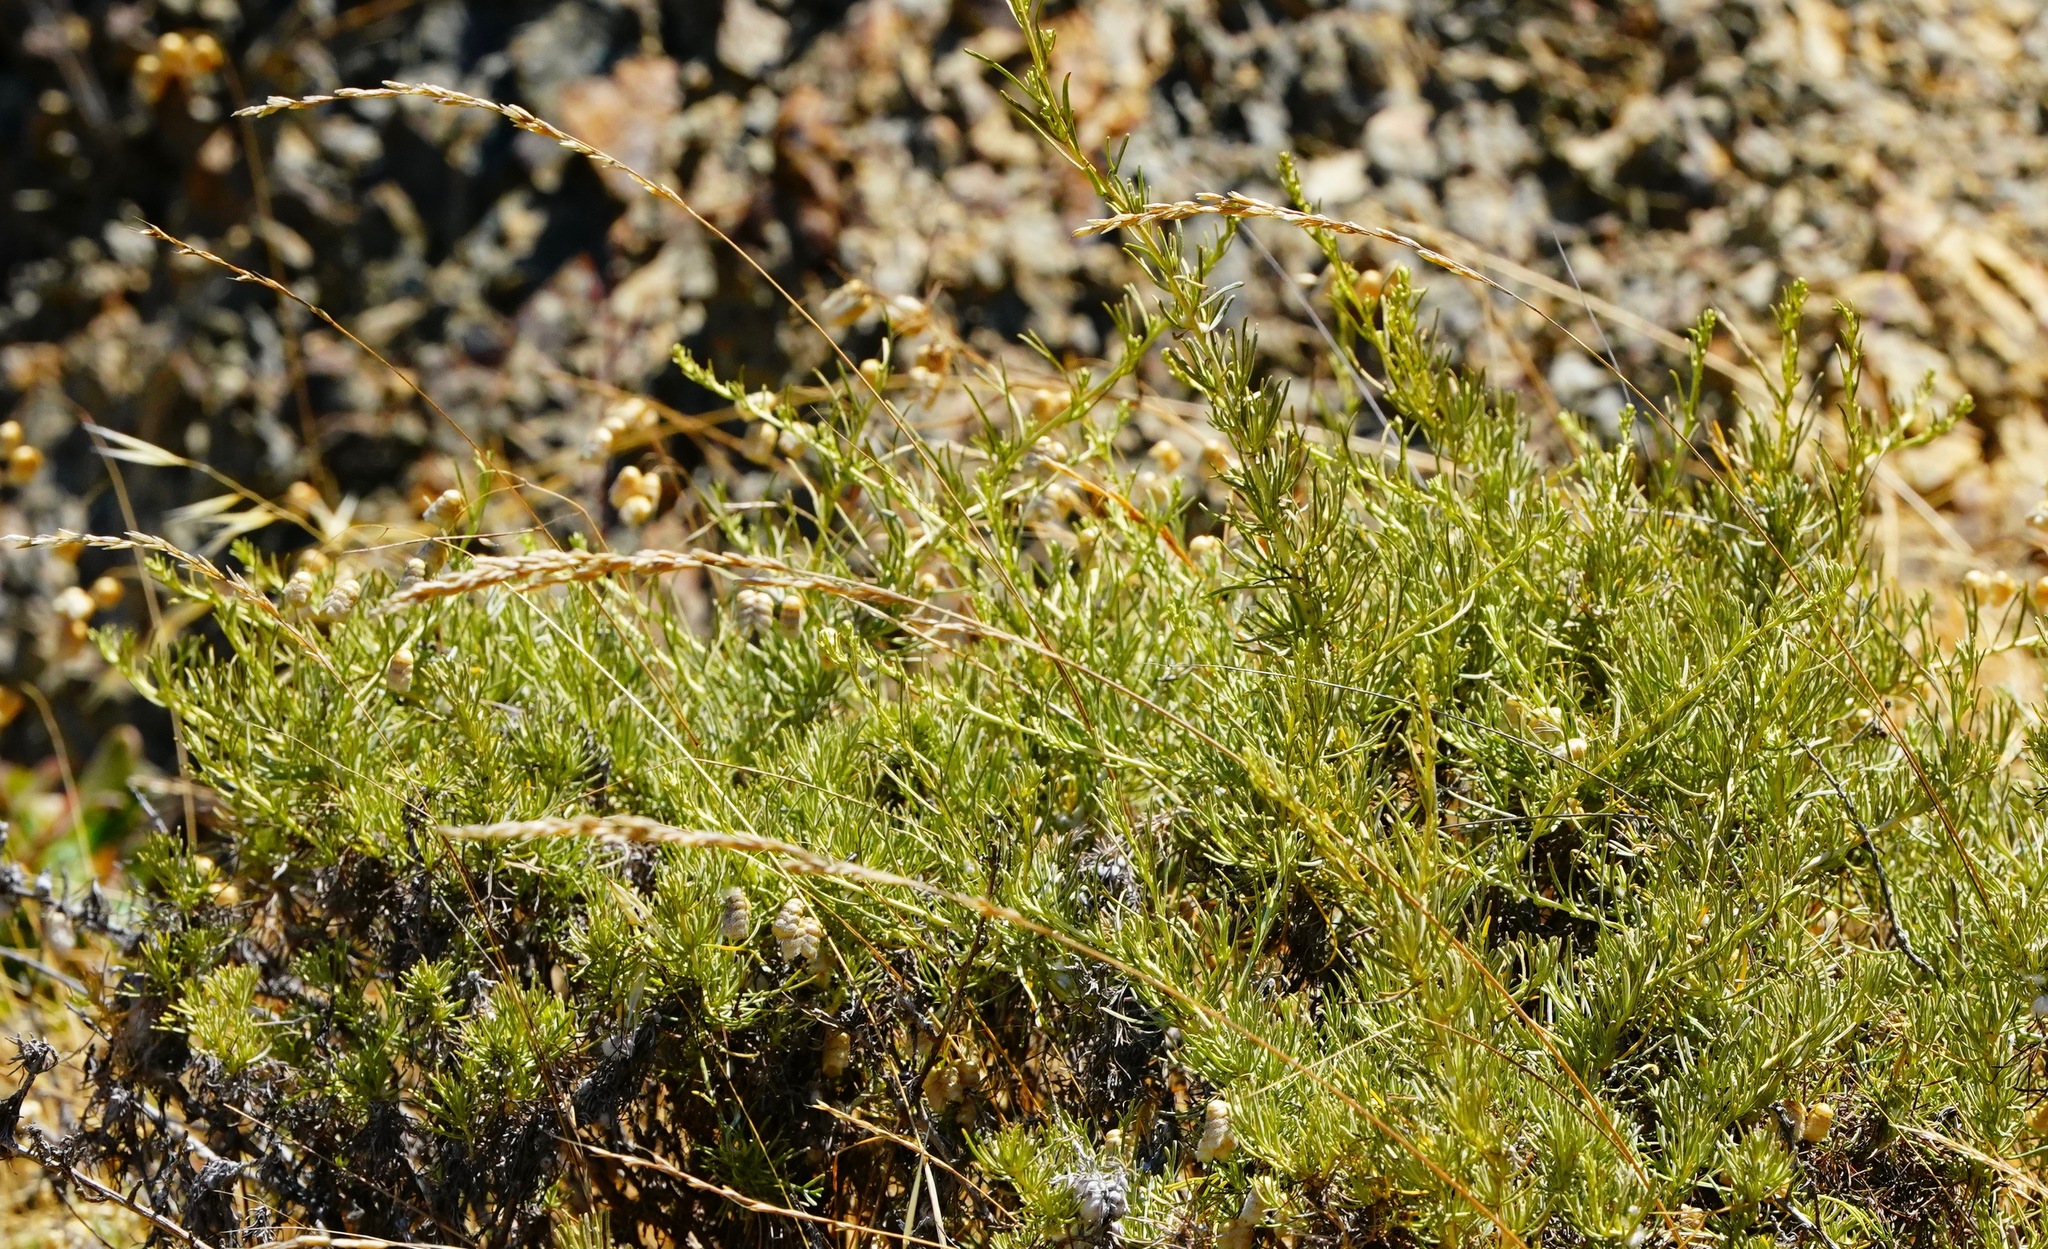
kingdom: Plantae
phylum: Tracheophyta
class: Magnoliopsida
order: Asterales
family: Asteraceae
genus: Artemisia
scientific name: Artemisia californica
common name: California sagebrush
